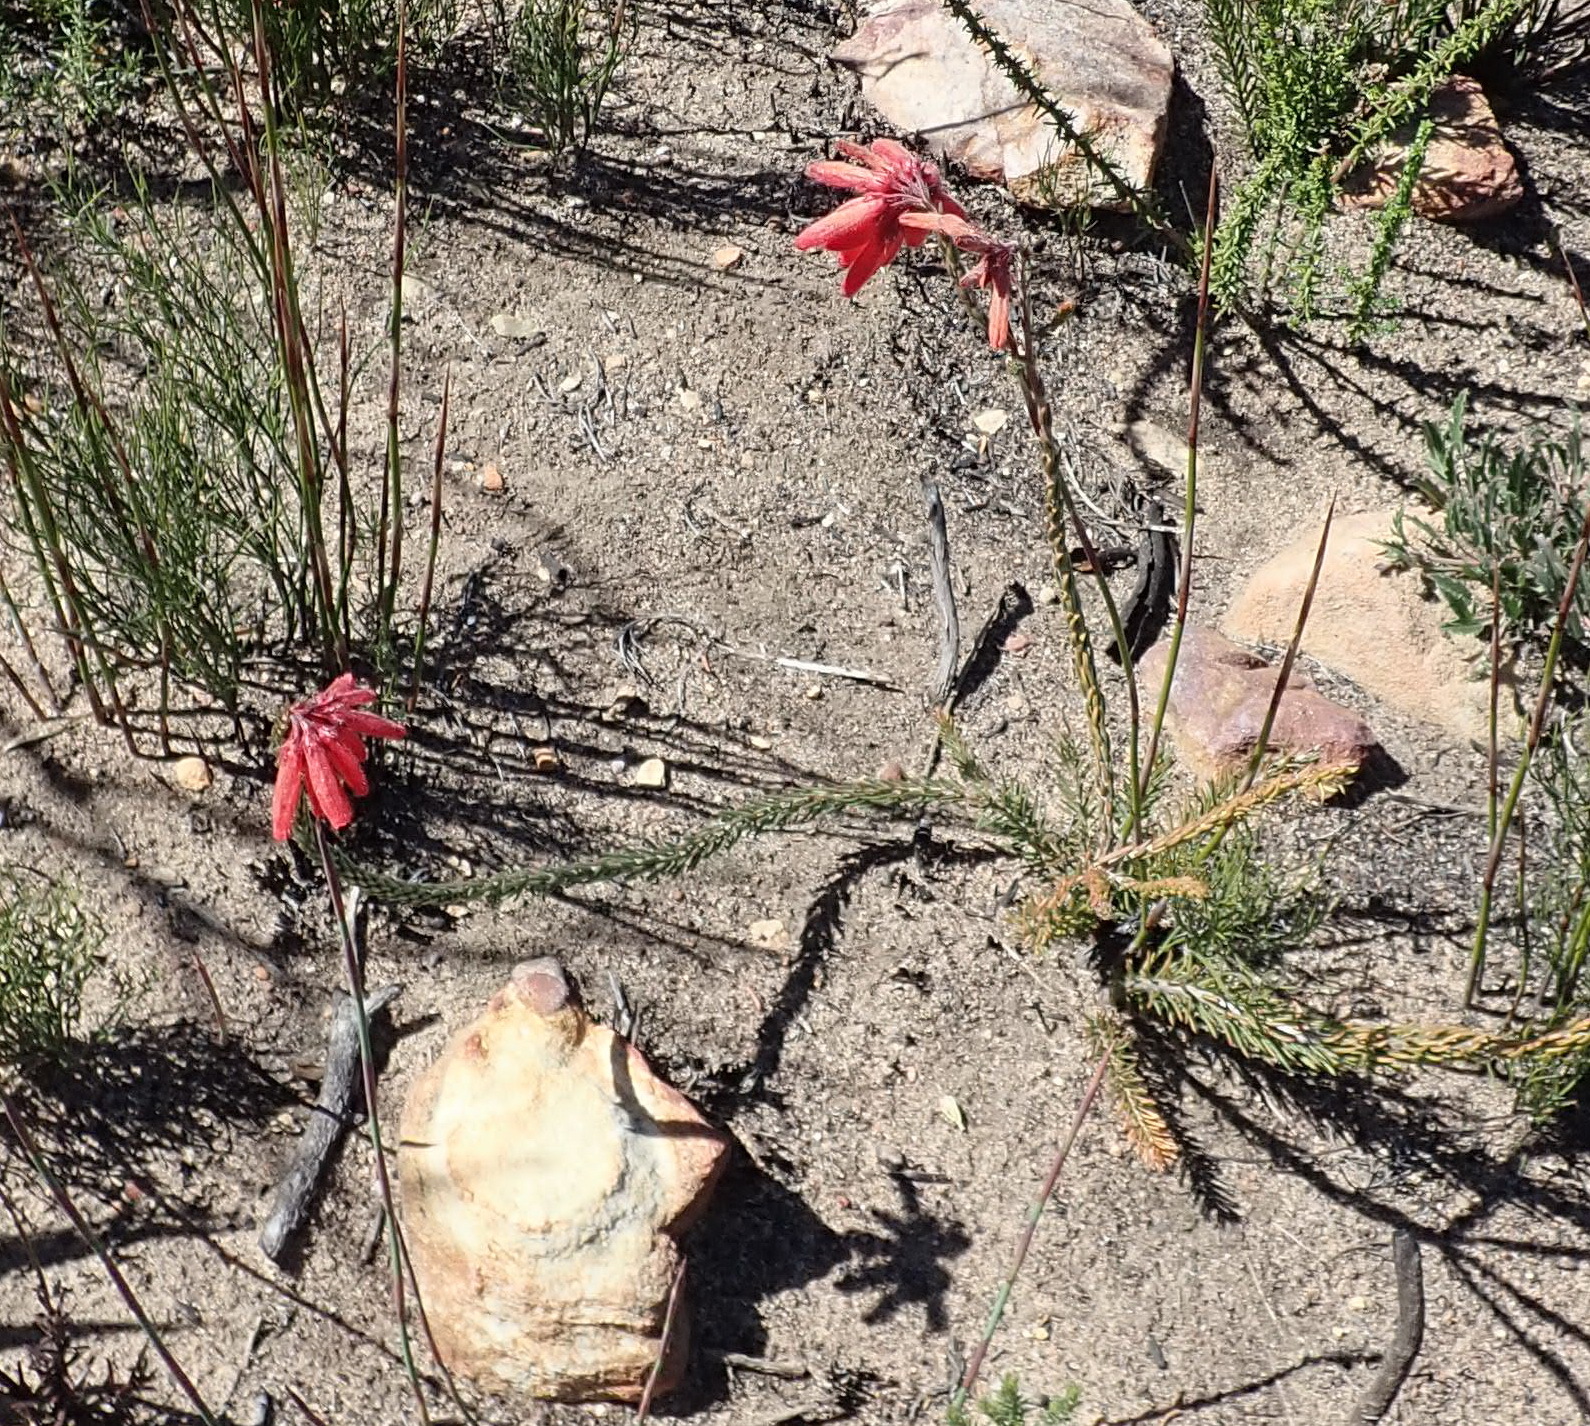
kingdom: Plantae
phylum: Tracheophyta
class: Magnoliopsida
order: Ericales
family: Ericaceae
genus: Erica
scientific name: Erica cerinthoides
